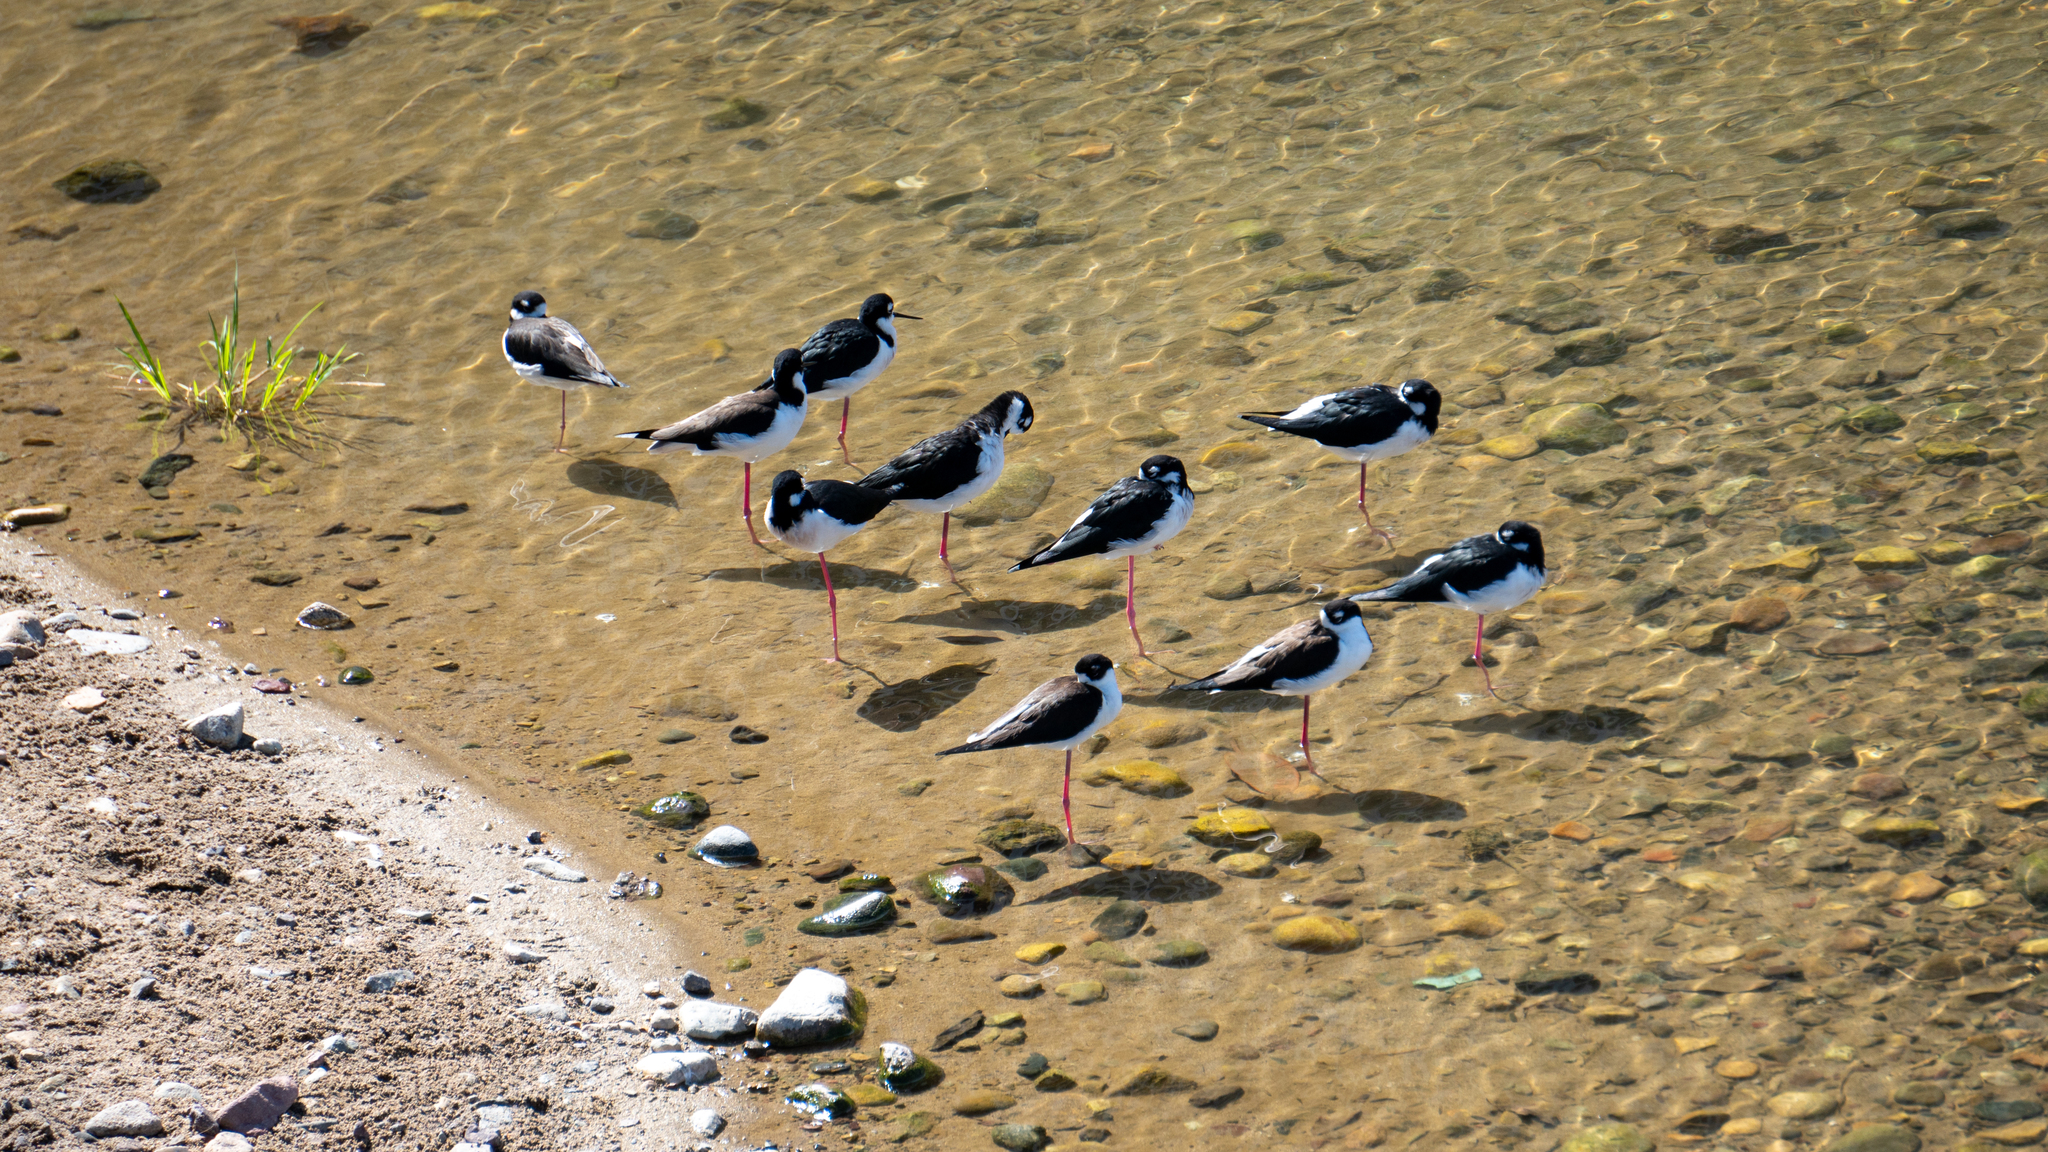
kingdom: Animalia
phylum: Chordata
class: Aves
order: Charadriiformes
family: Recurvirostridae
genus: Himantopus
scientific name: Himantopus mexicanus
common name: Black-necked stilt
